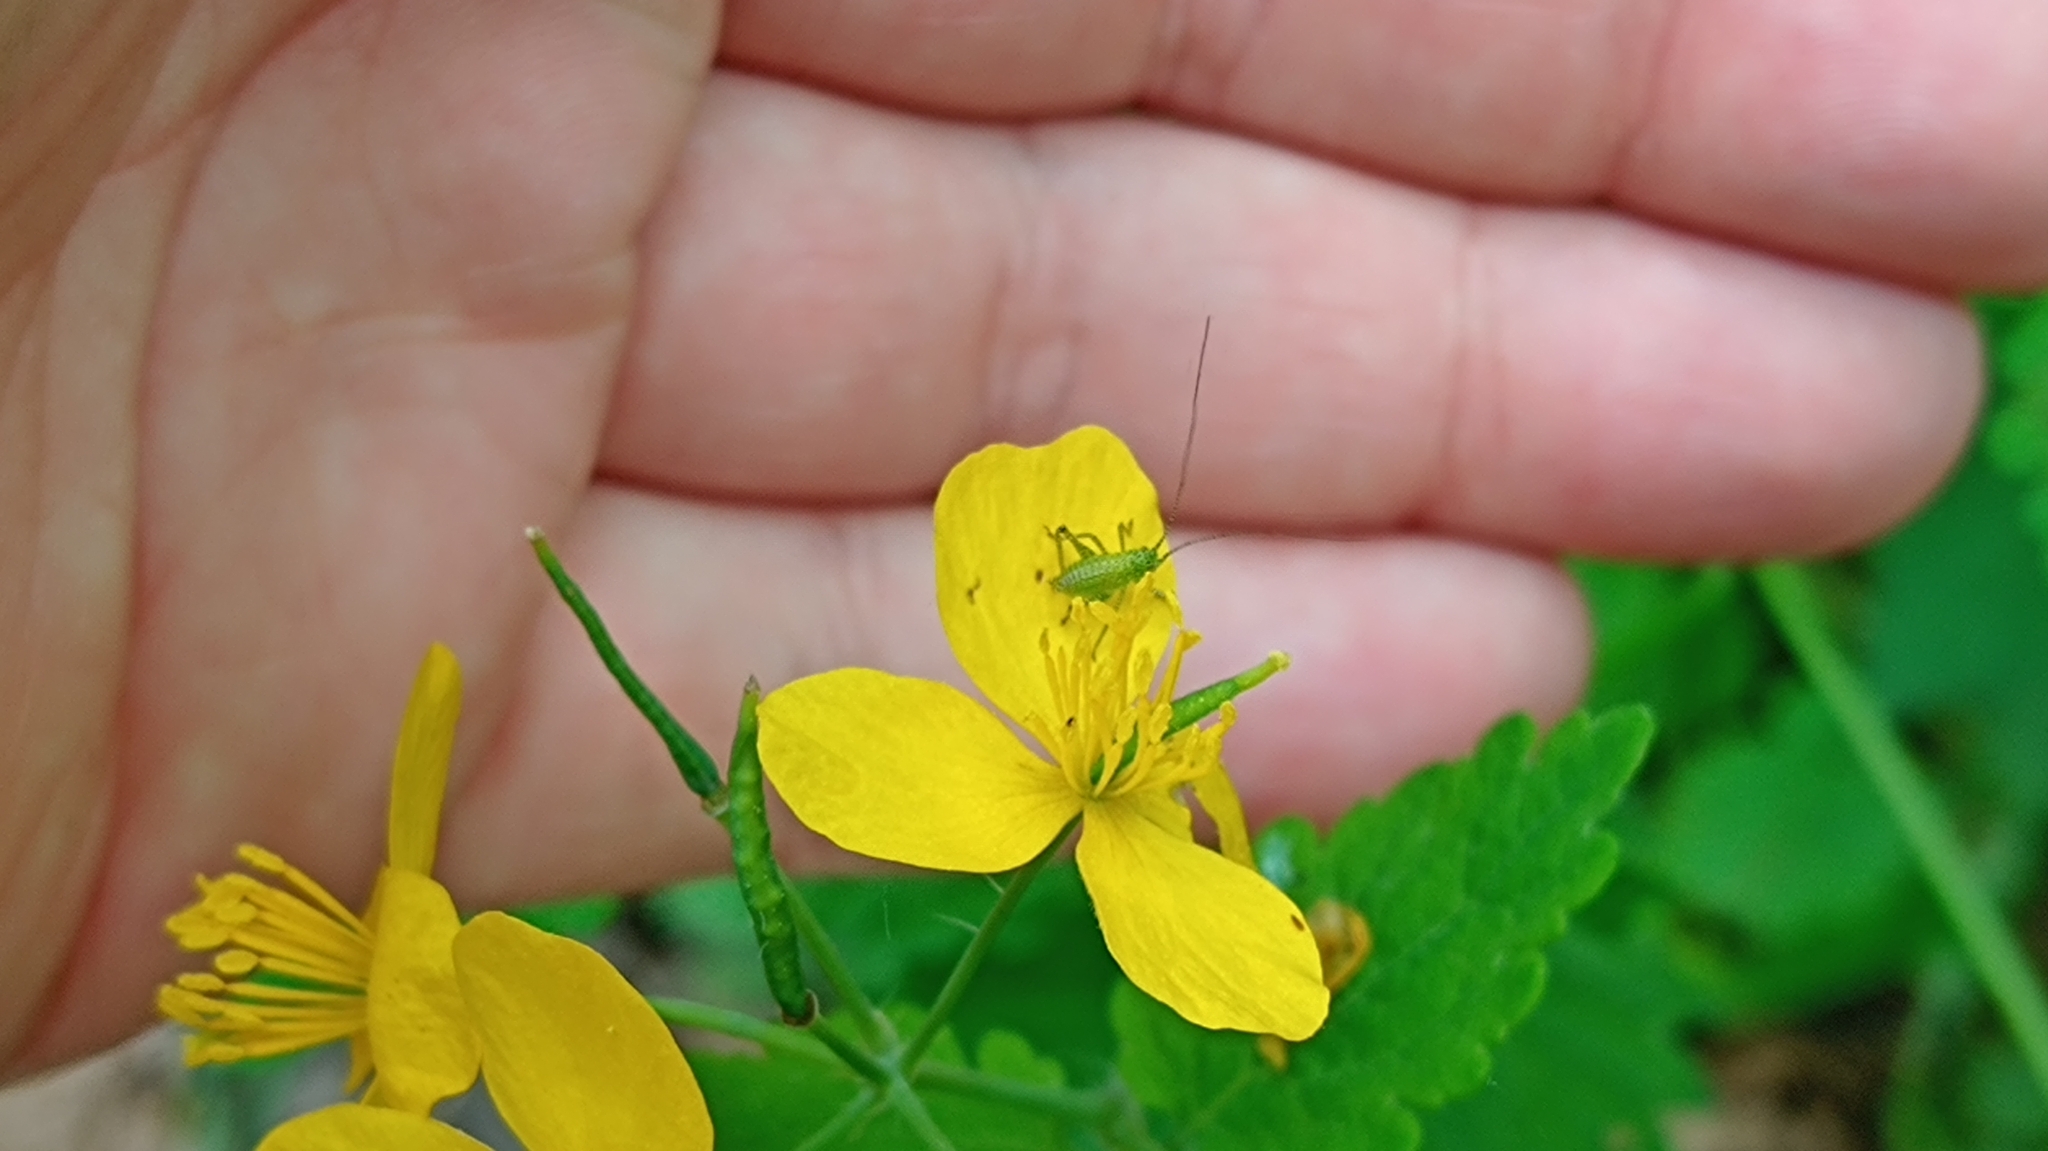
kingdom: Plantae
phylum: Tracheophyta
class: Magnoliopsida
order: Ranunculales
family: Papaveraceae
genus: Chelidonium
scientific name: Chelidonium majus
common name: Greater celandine
